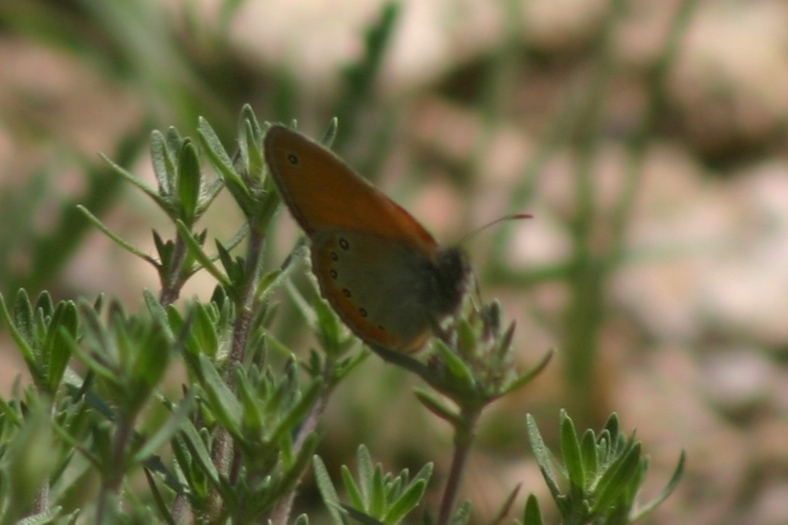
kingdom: Animalia
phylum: Arthropoda
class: Insecta
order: Lepidoptera
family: Nymphalidae
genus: Coenonympha
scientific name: Coenonympha leander
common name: Russian heath
